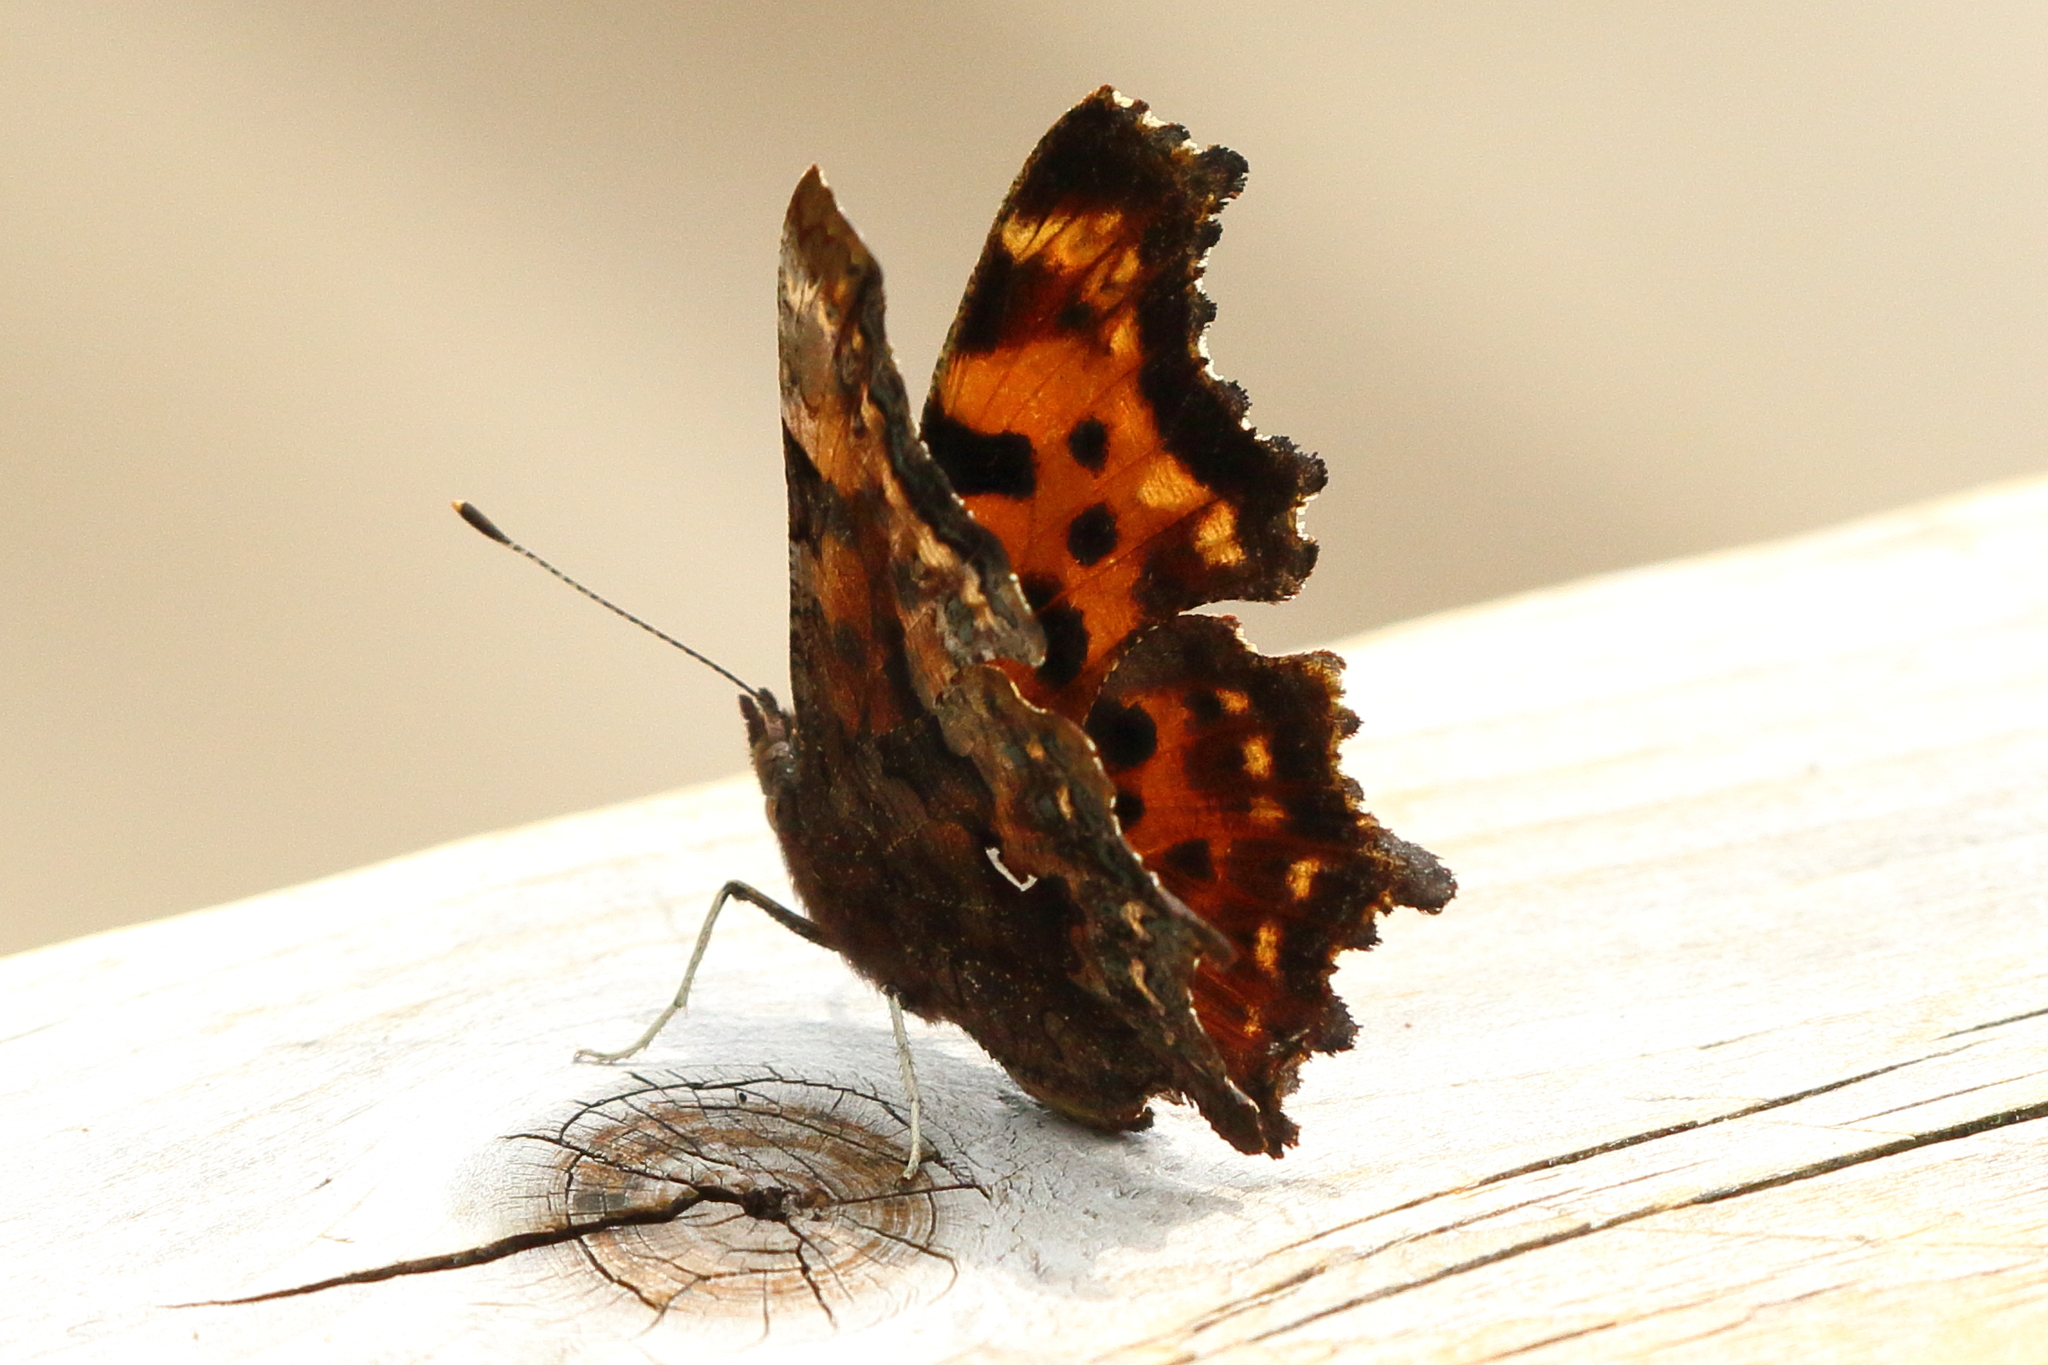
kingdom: Animalia
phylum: Arthropoda
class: Insecta
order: Lepidoptera
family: Nymphalidae
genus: Polygonia
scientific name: Polygonia faunus
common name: Green comma
